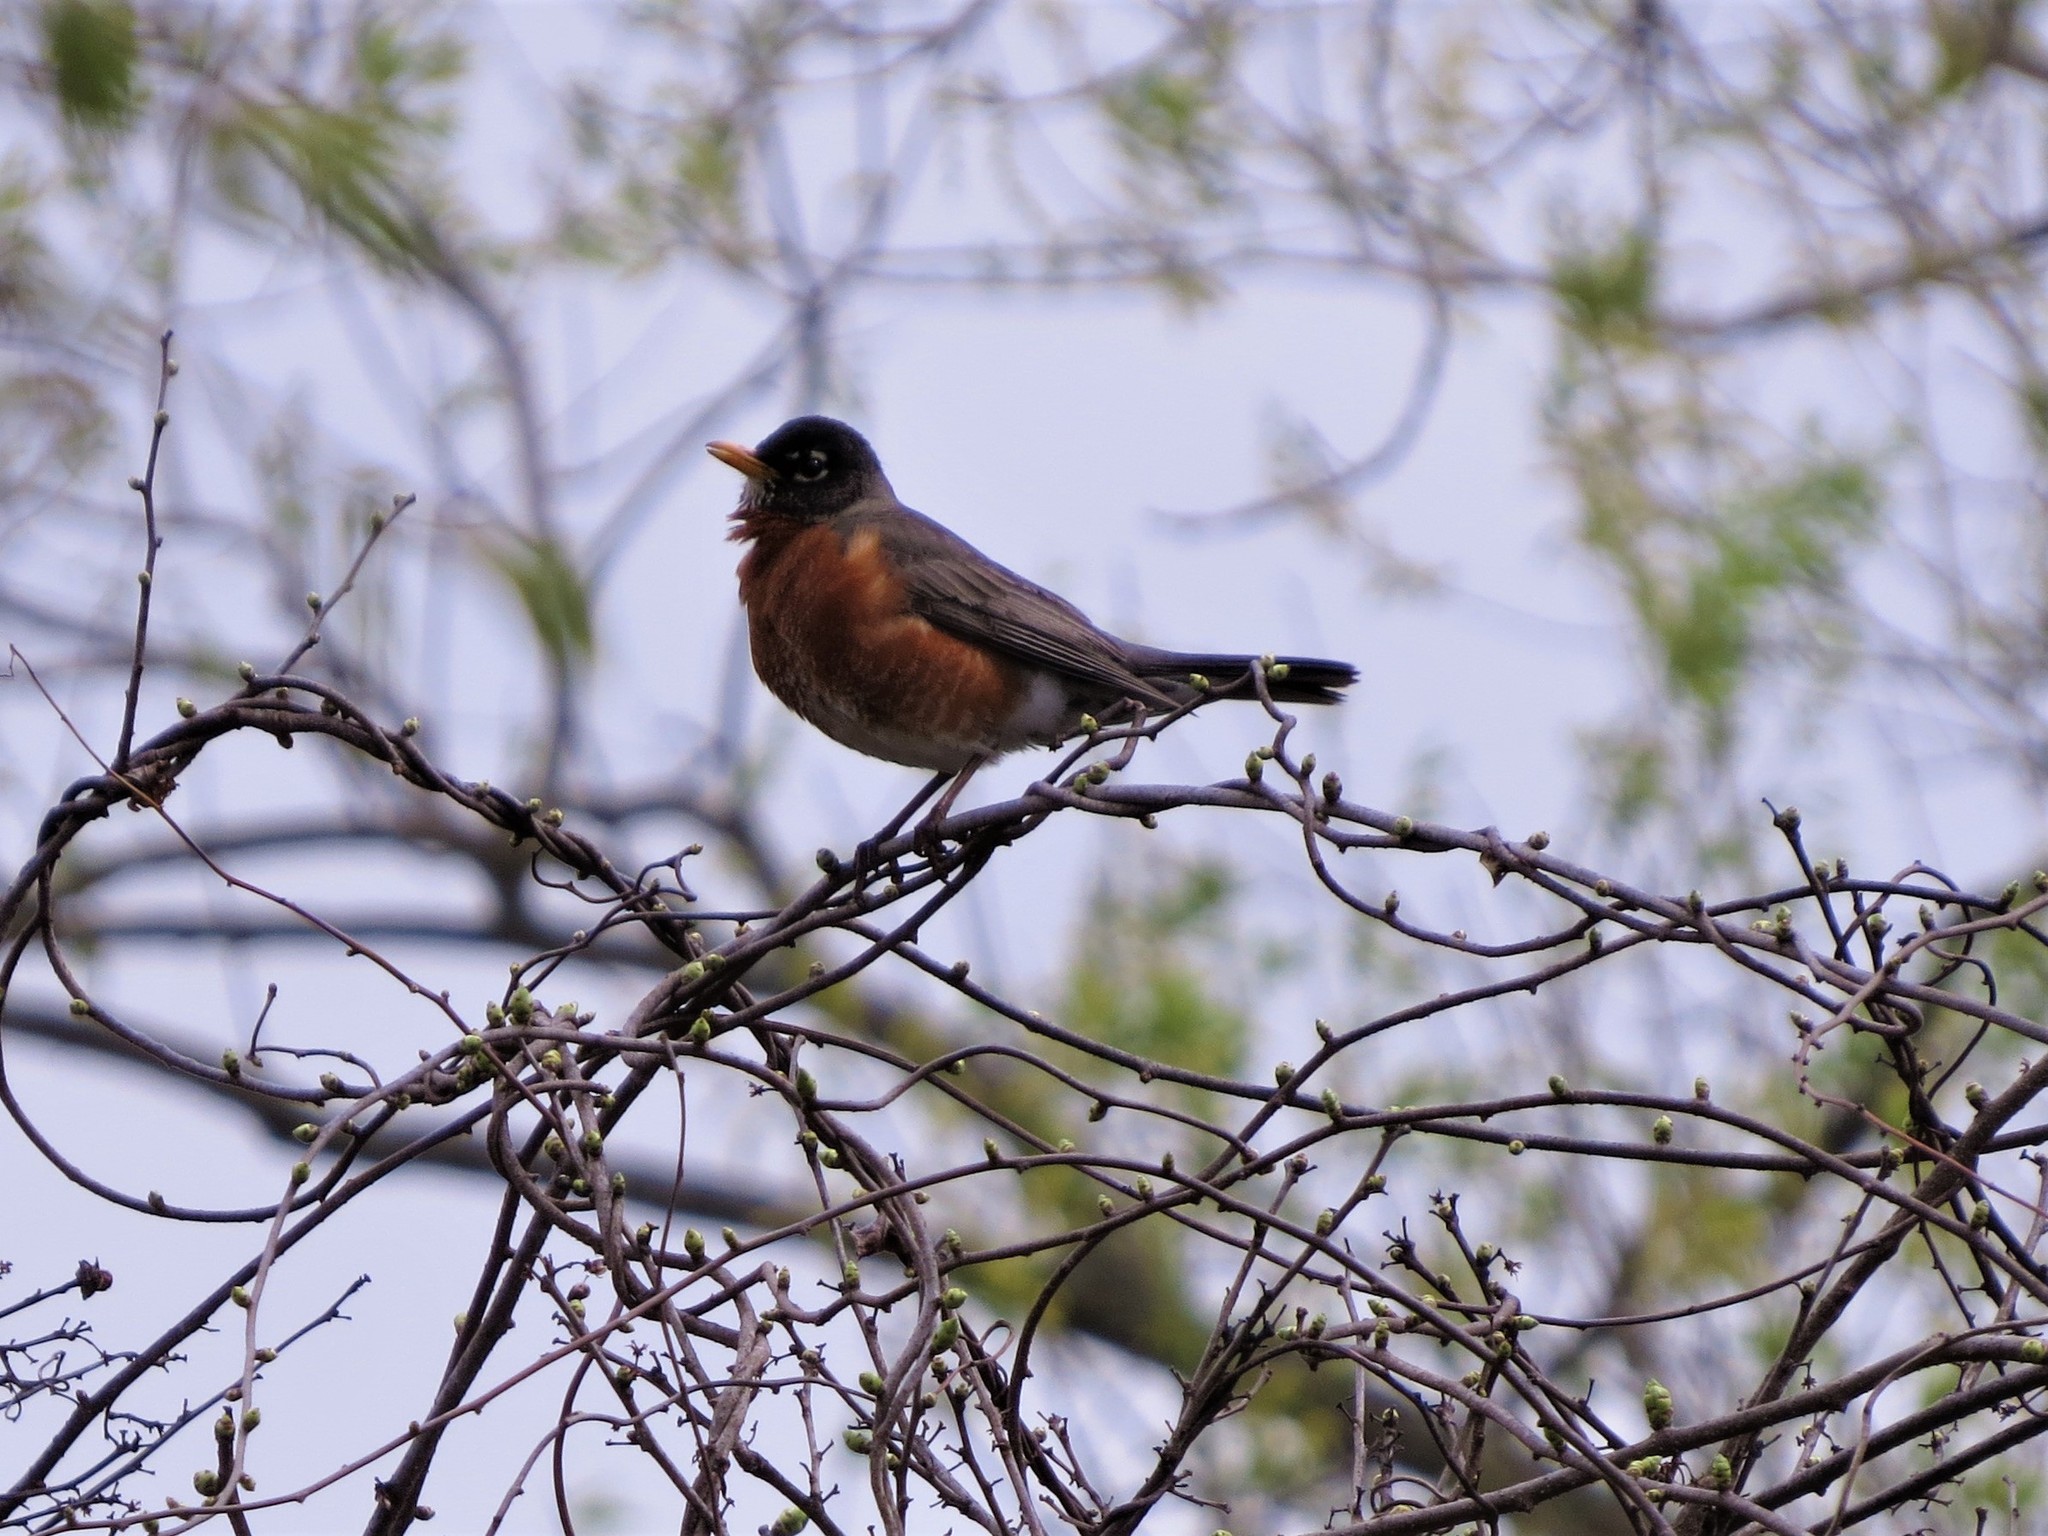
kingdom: Animalia
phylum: Chordata
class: Aves
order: Passeriformes
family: Turdidae
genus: Turdus
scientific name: Turdus migratorius
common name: American robin
